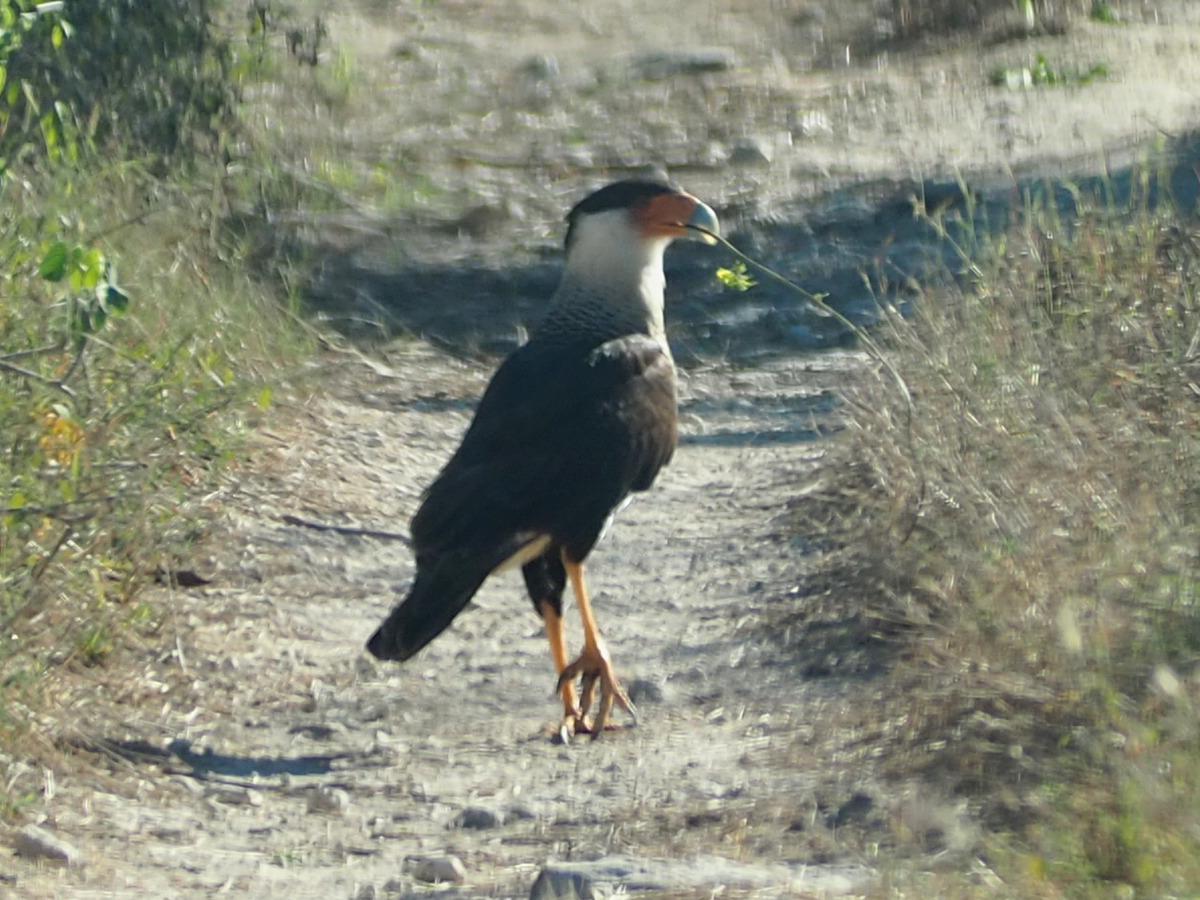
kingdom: Animalia
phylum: Chordata
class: Aves
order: Falconiformes
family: Falconidae
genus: Caracara
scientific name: Caracara plancus
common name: Southern caracara
